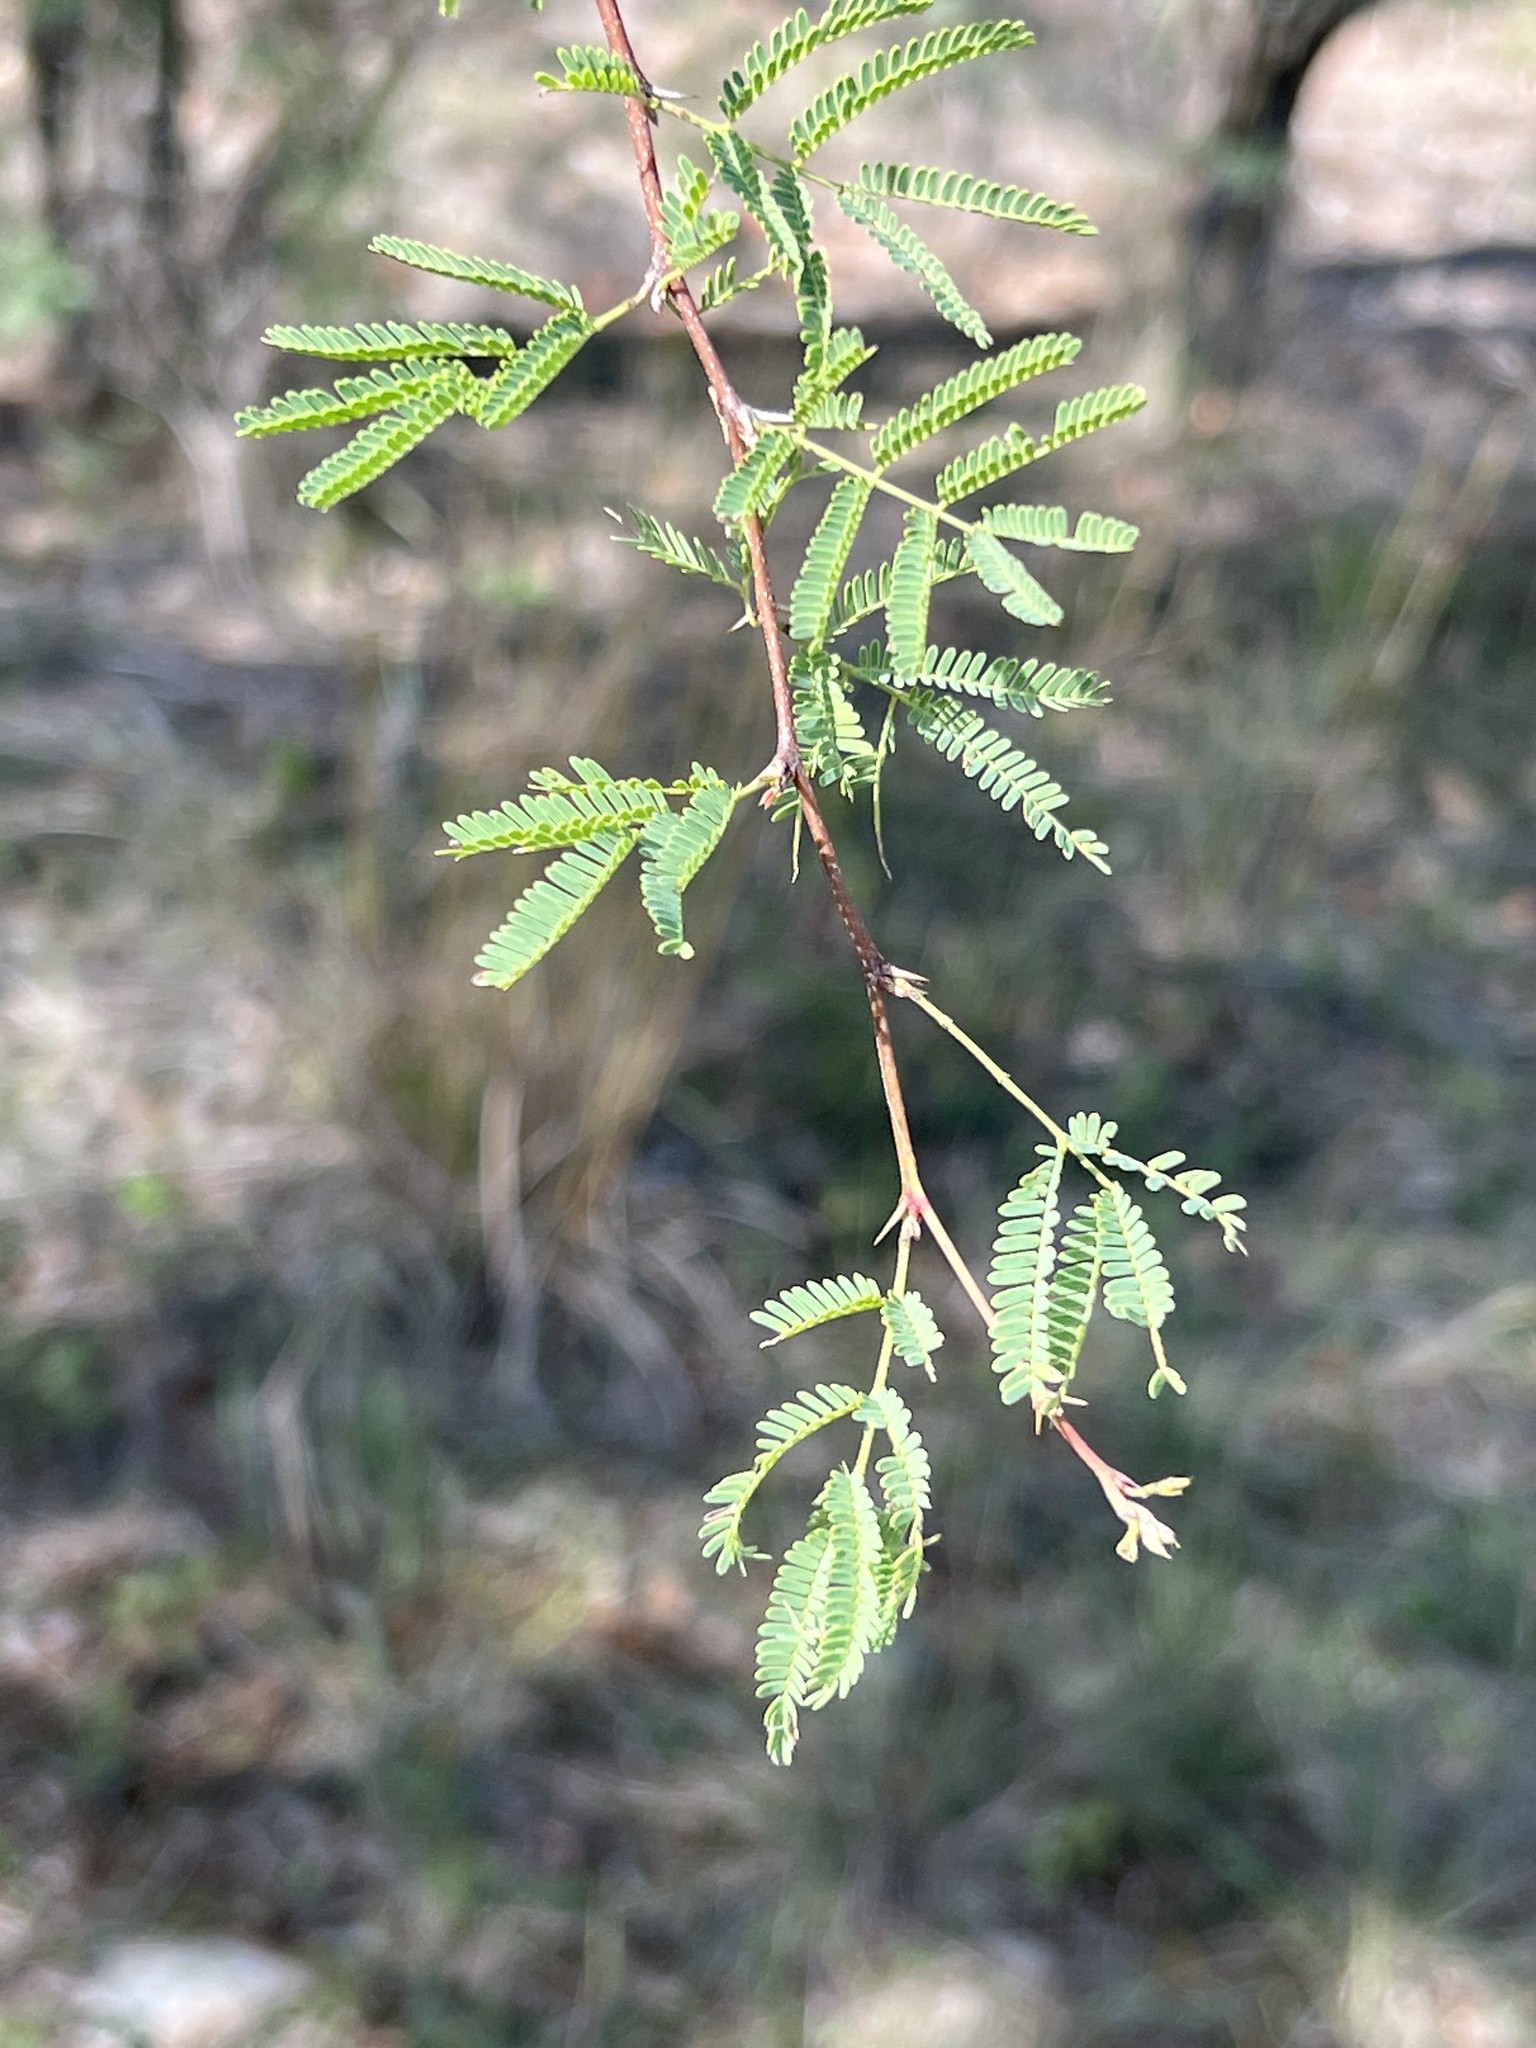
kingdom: Plantae
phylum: Tracheophyta
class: Magnoliopsida
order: Fabales
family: Fabaceae
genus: Vachellia
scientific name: Vachellia farnesiana
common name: Sweet acacia
